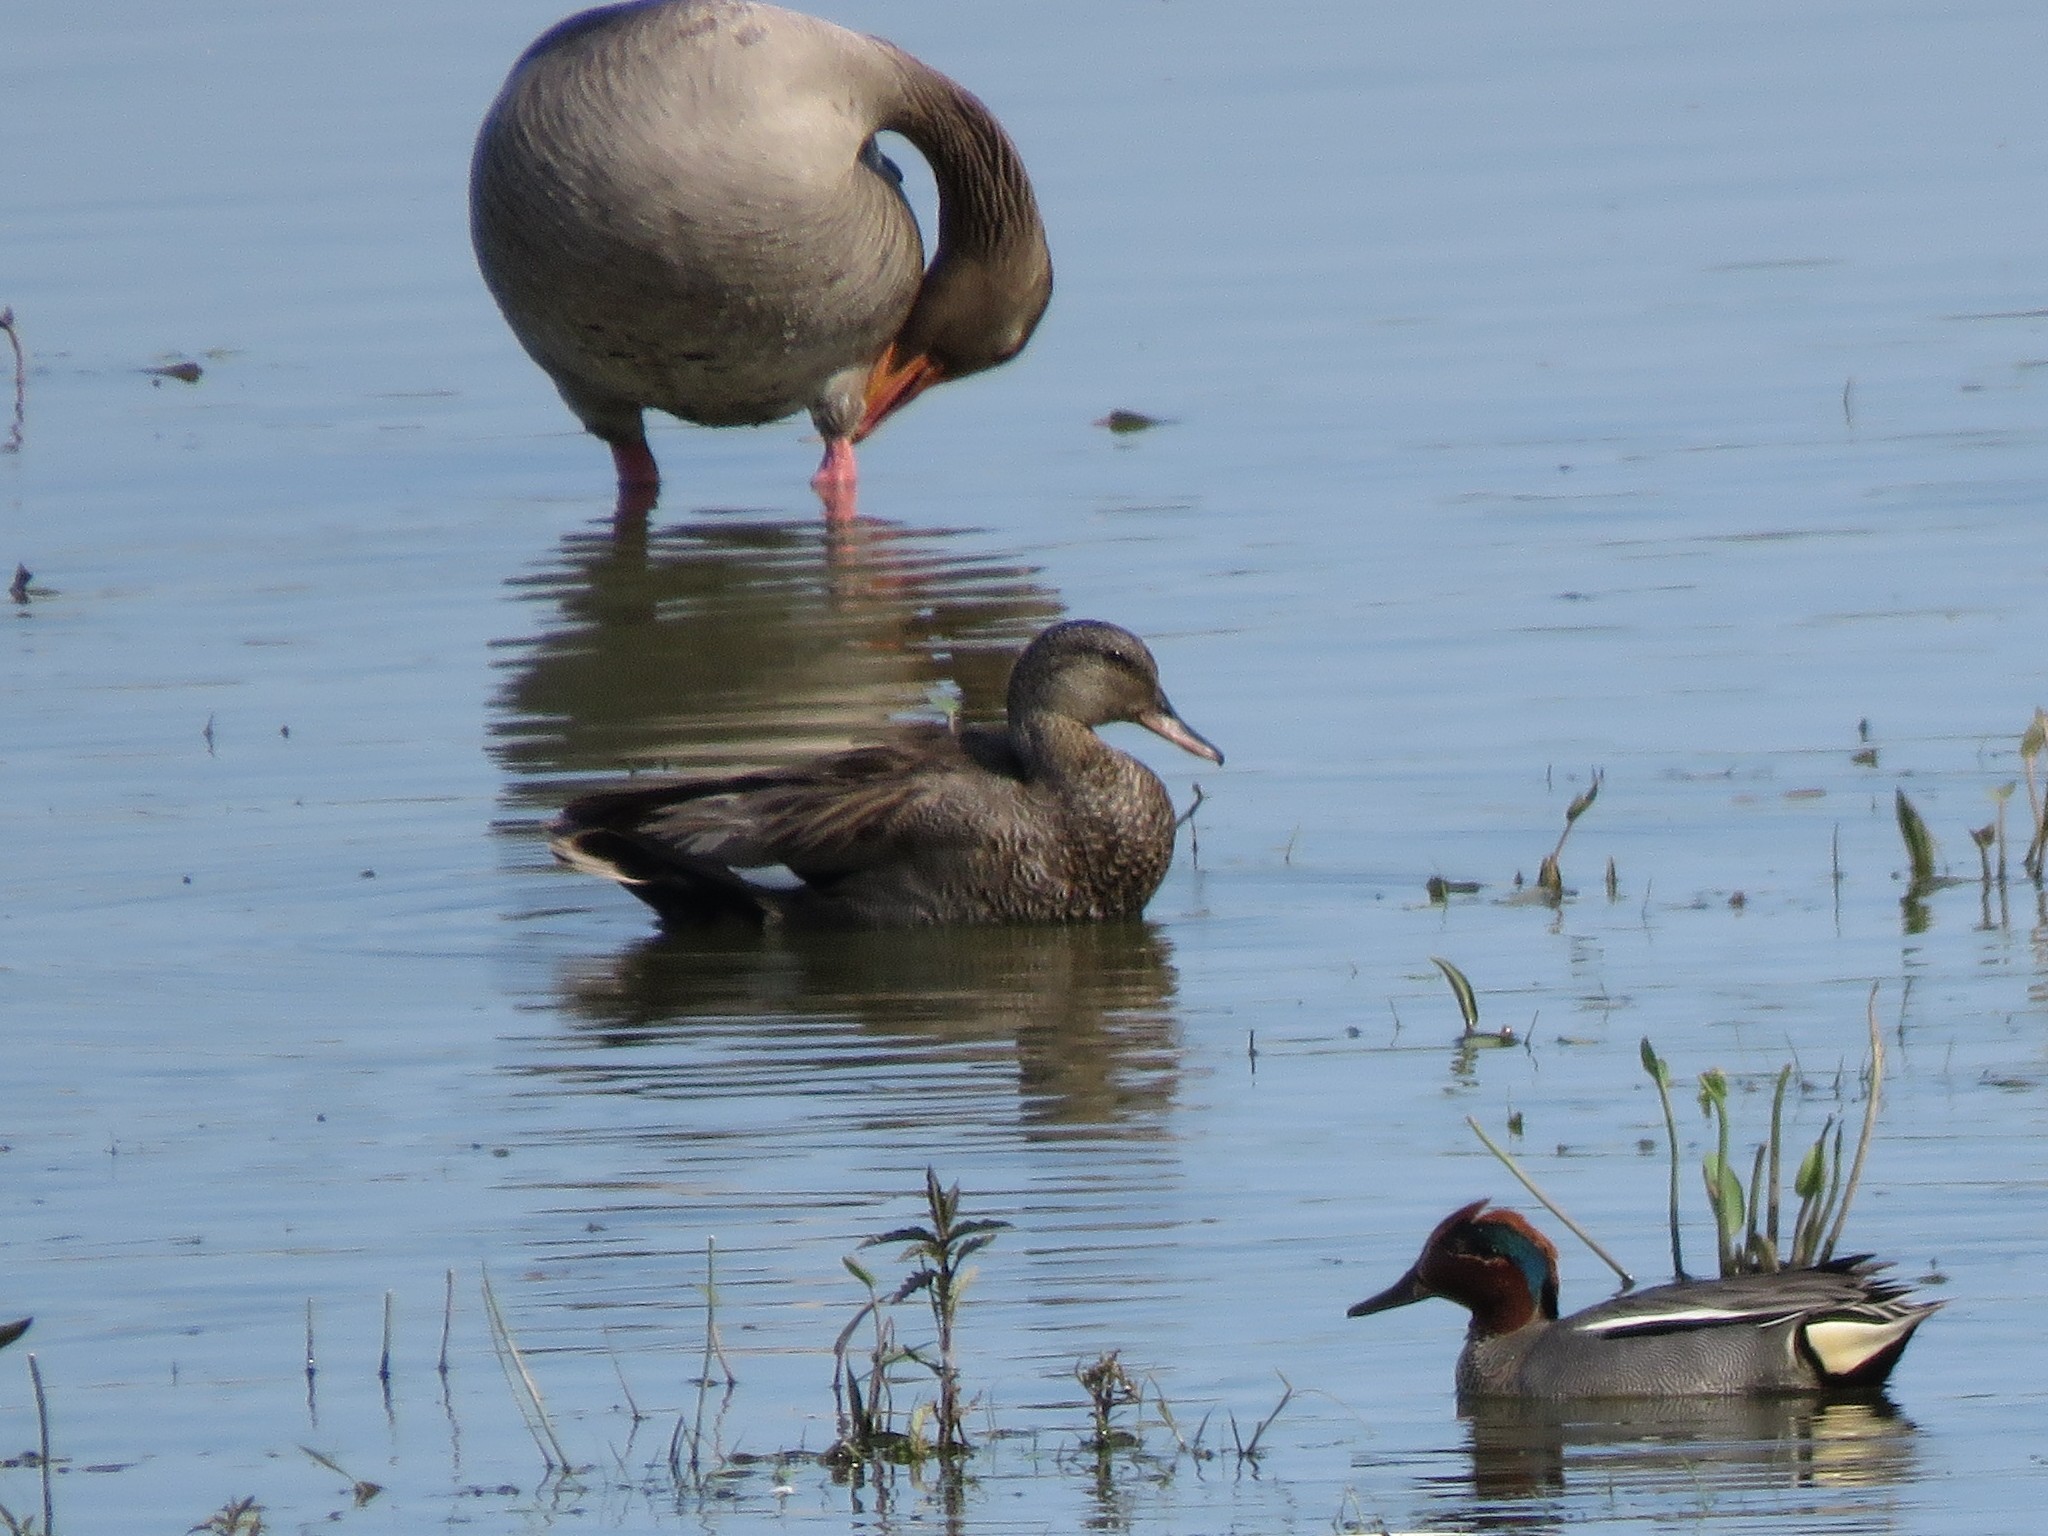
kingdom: Animalia
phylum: Chordata
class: Aves
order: Anseriformes
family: Anatidae
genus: Mareca
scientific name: Mareca strepera
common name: Gadwall
